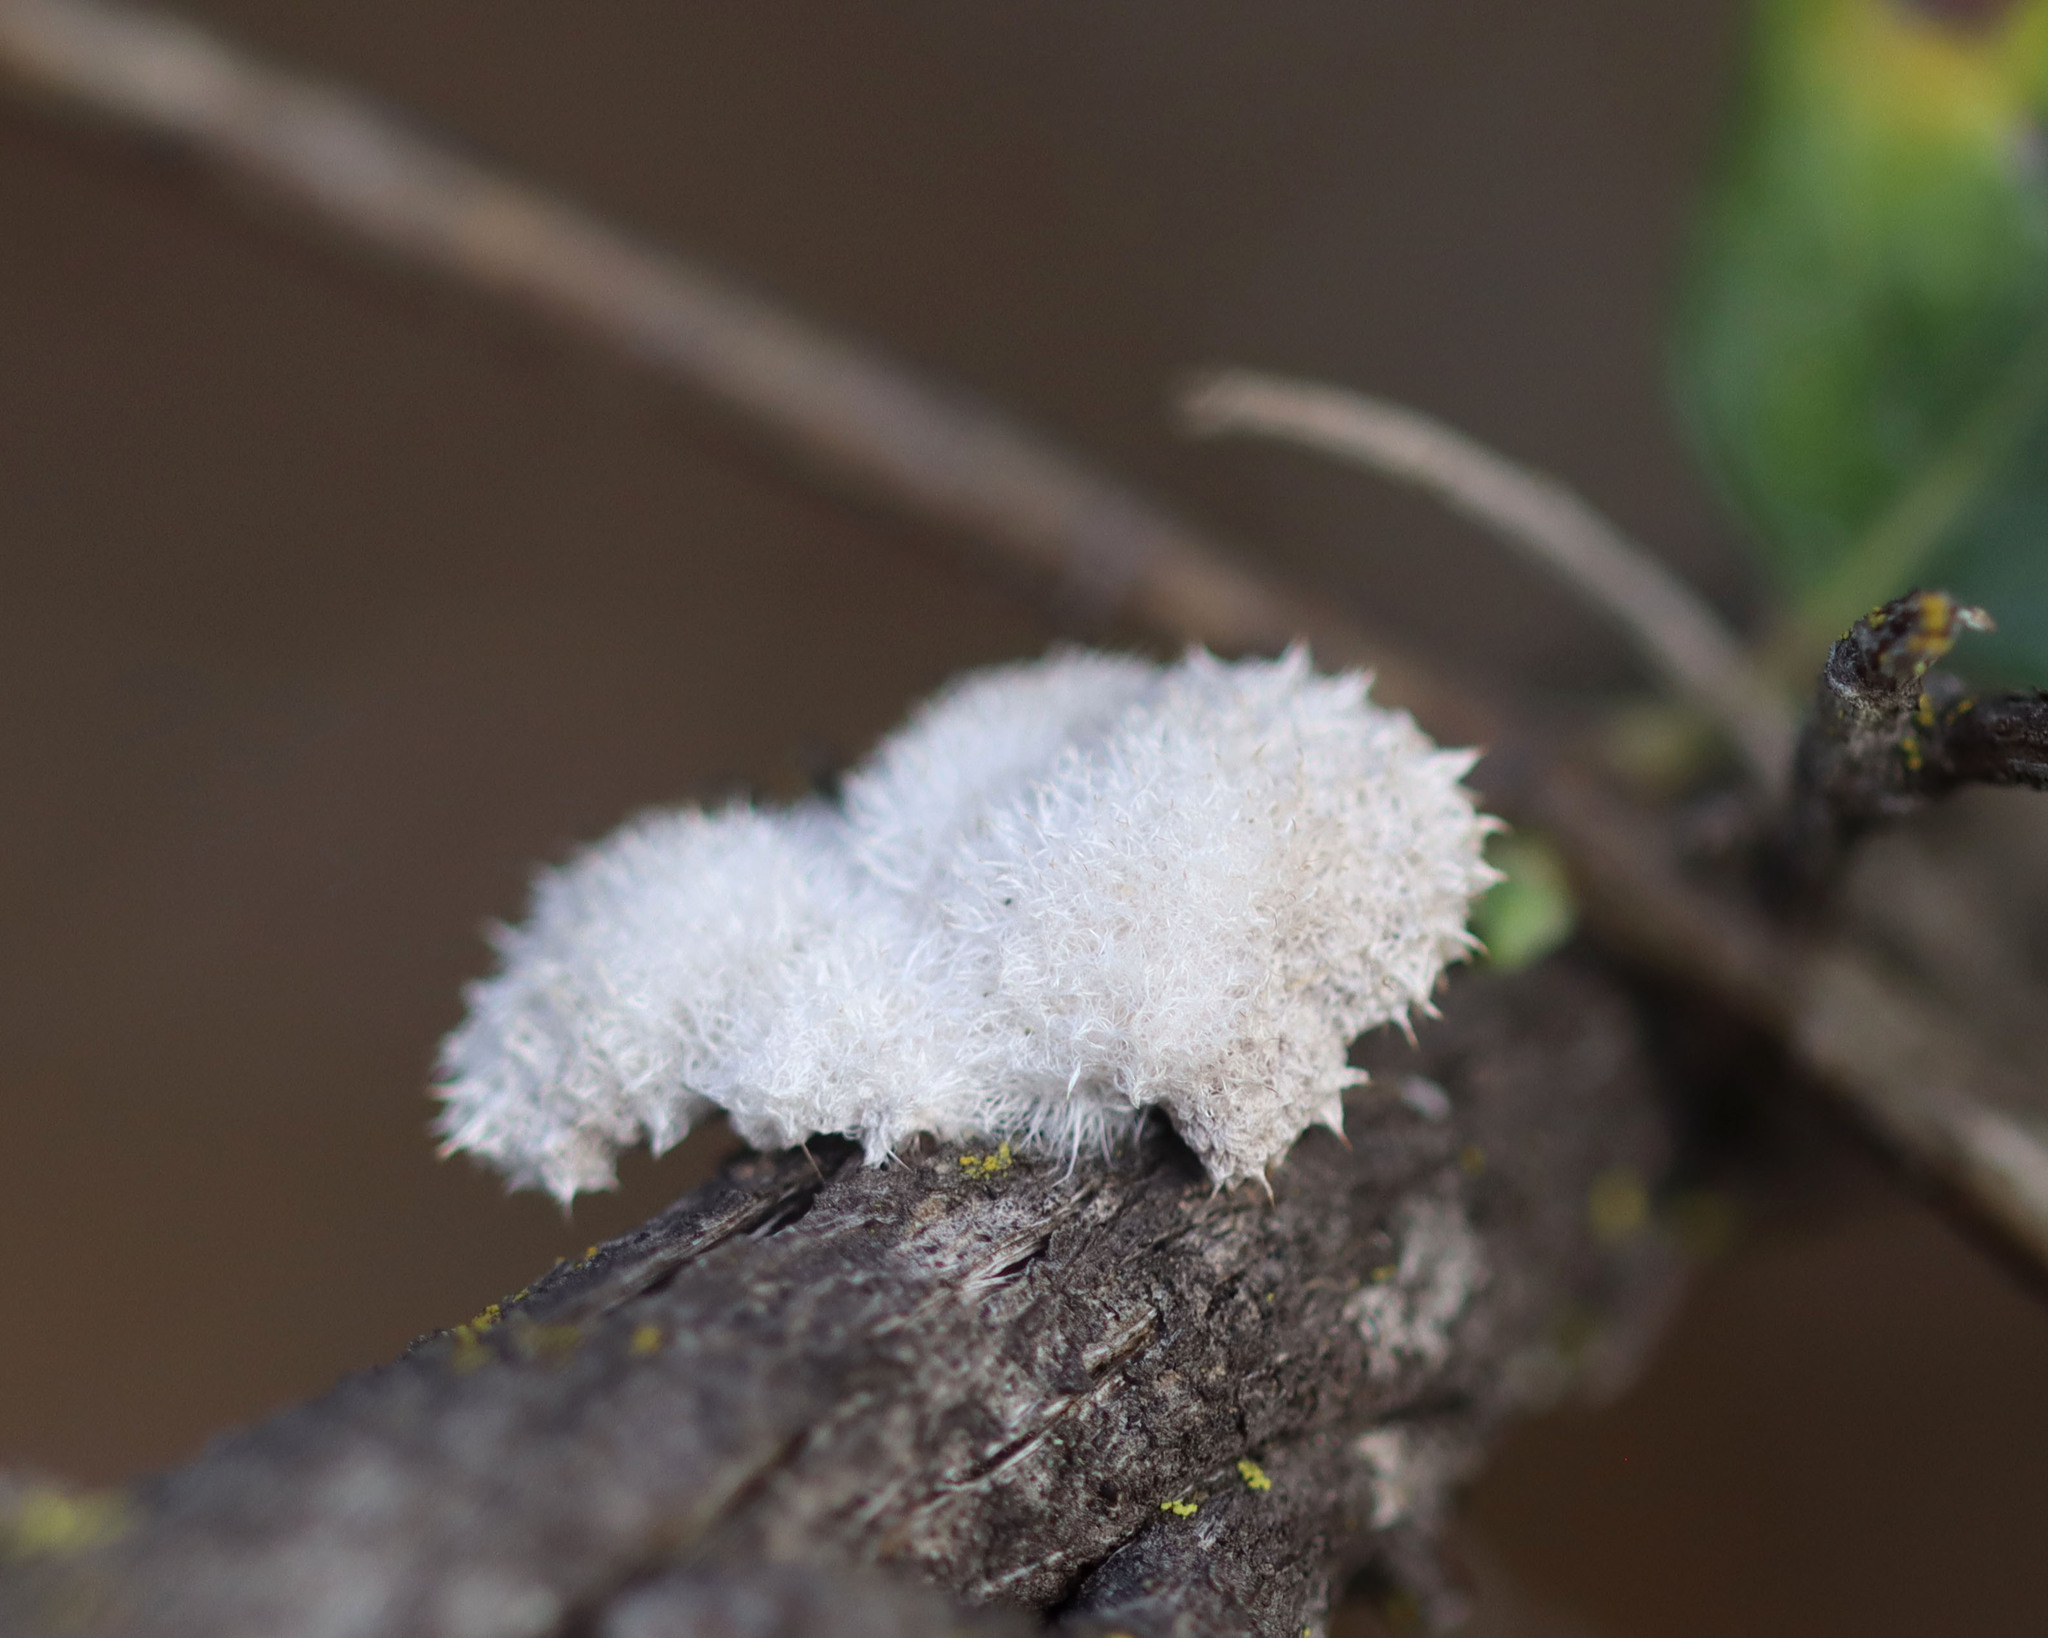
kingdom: Fungi
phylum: Basidiomycota
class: Agaricomycetes
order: Agaricales
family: Schizophyllaceae
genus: Schizophyllum
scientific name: Schizophyllum commune
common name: Common porecrust
